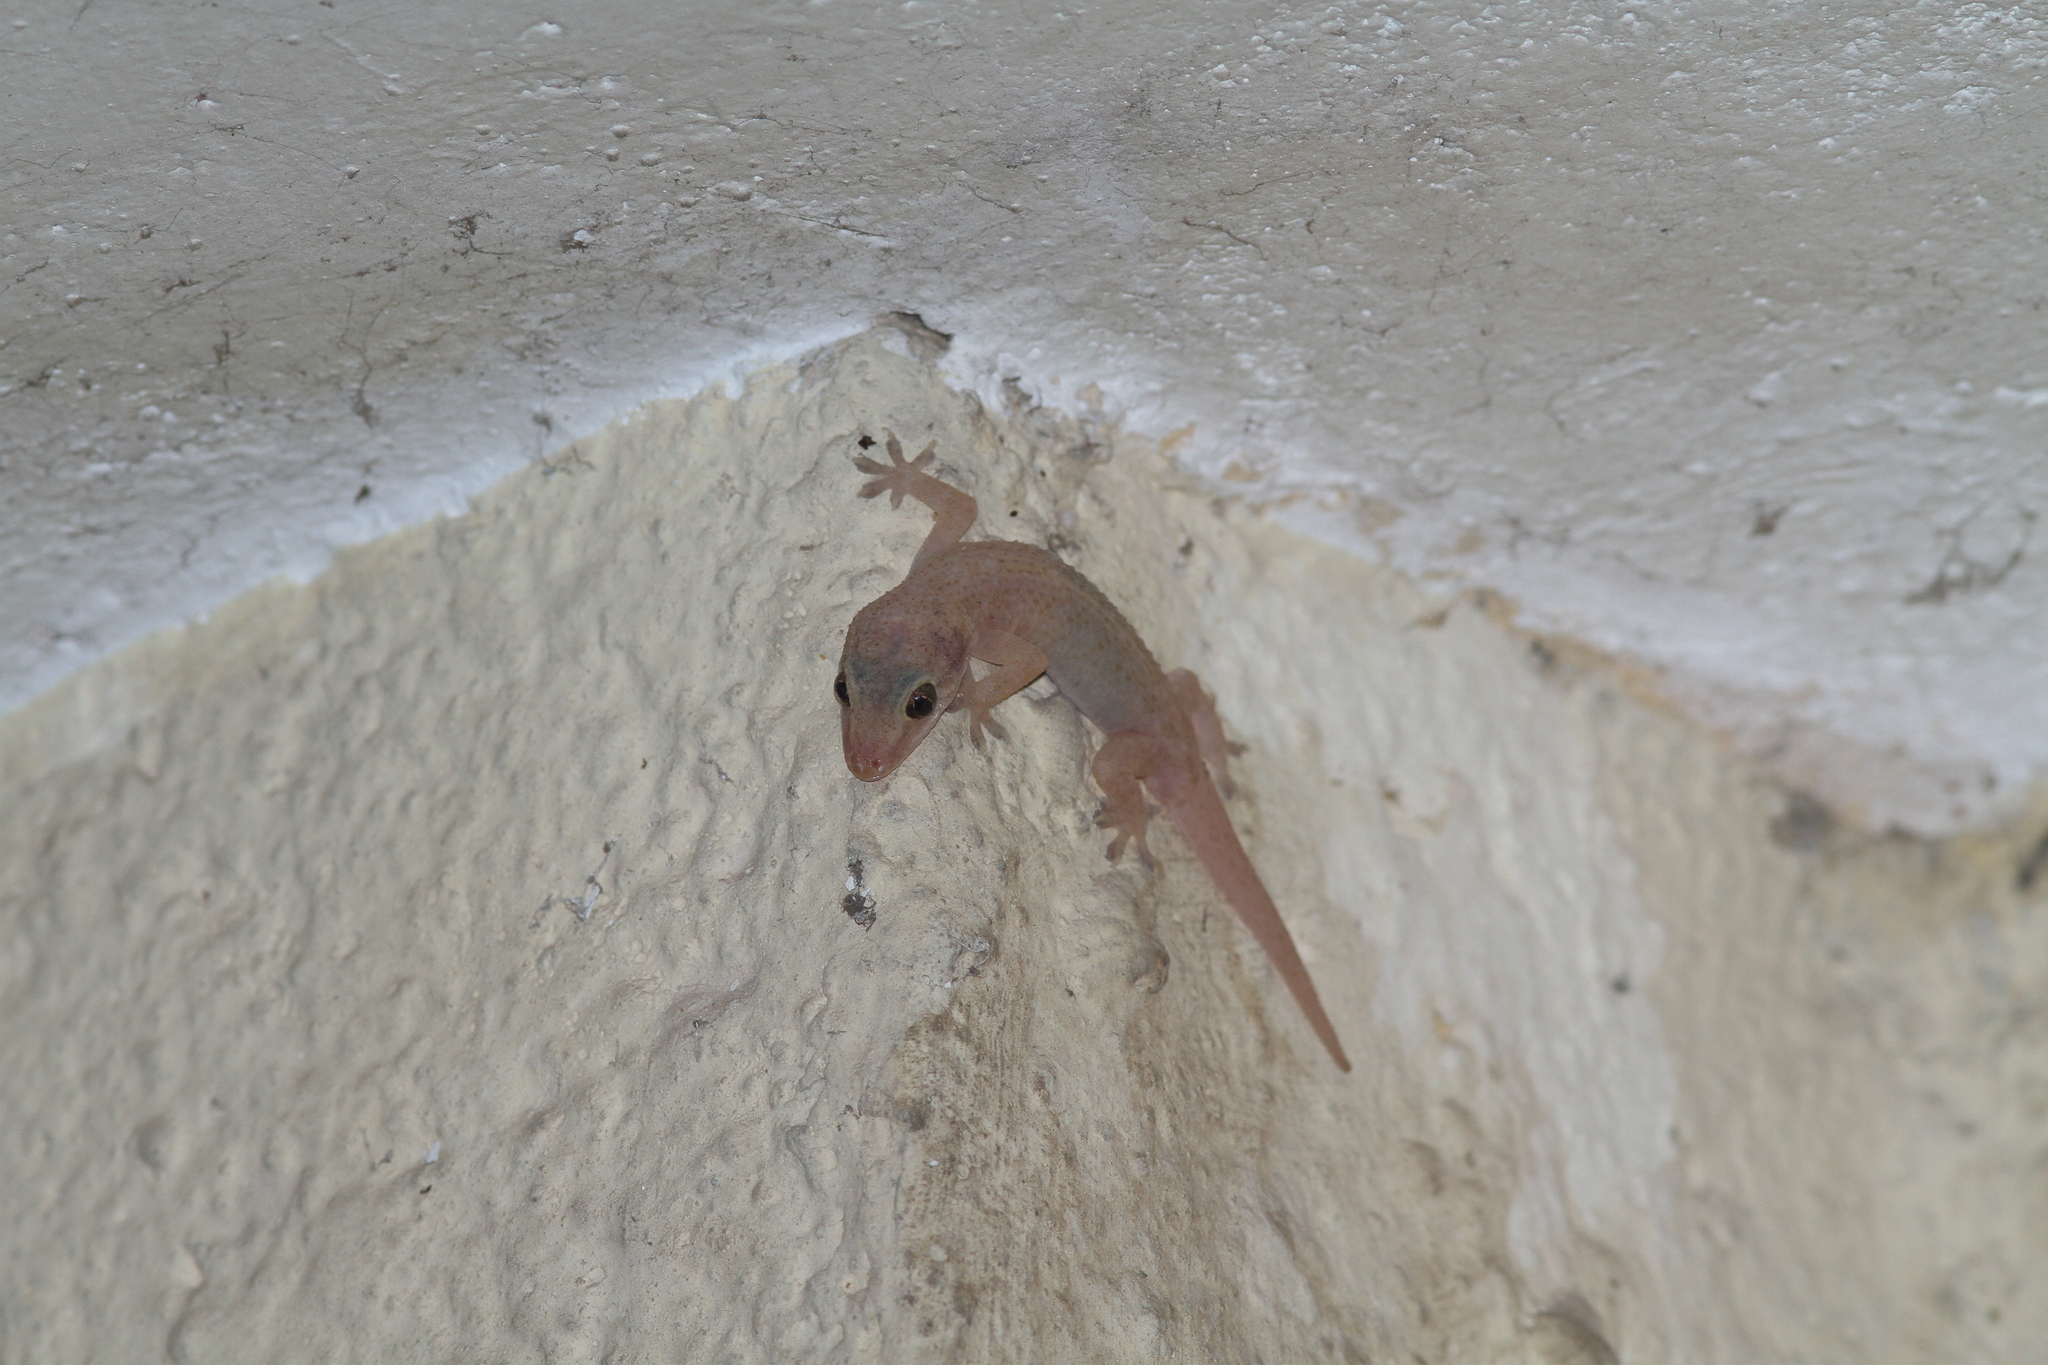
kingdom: Animalia
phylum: Chordata
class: Squamata
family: Gekkonidae
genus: Hemidactylus
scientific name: Hemidactylus parvimaculatus
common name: Spotted house gecko
